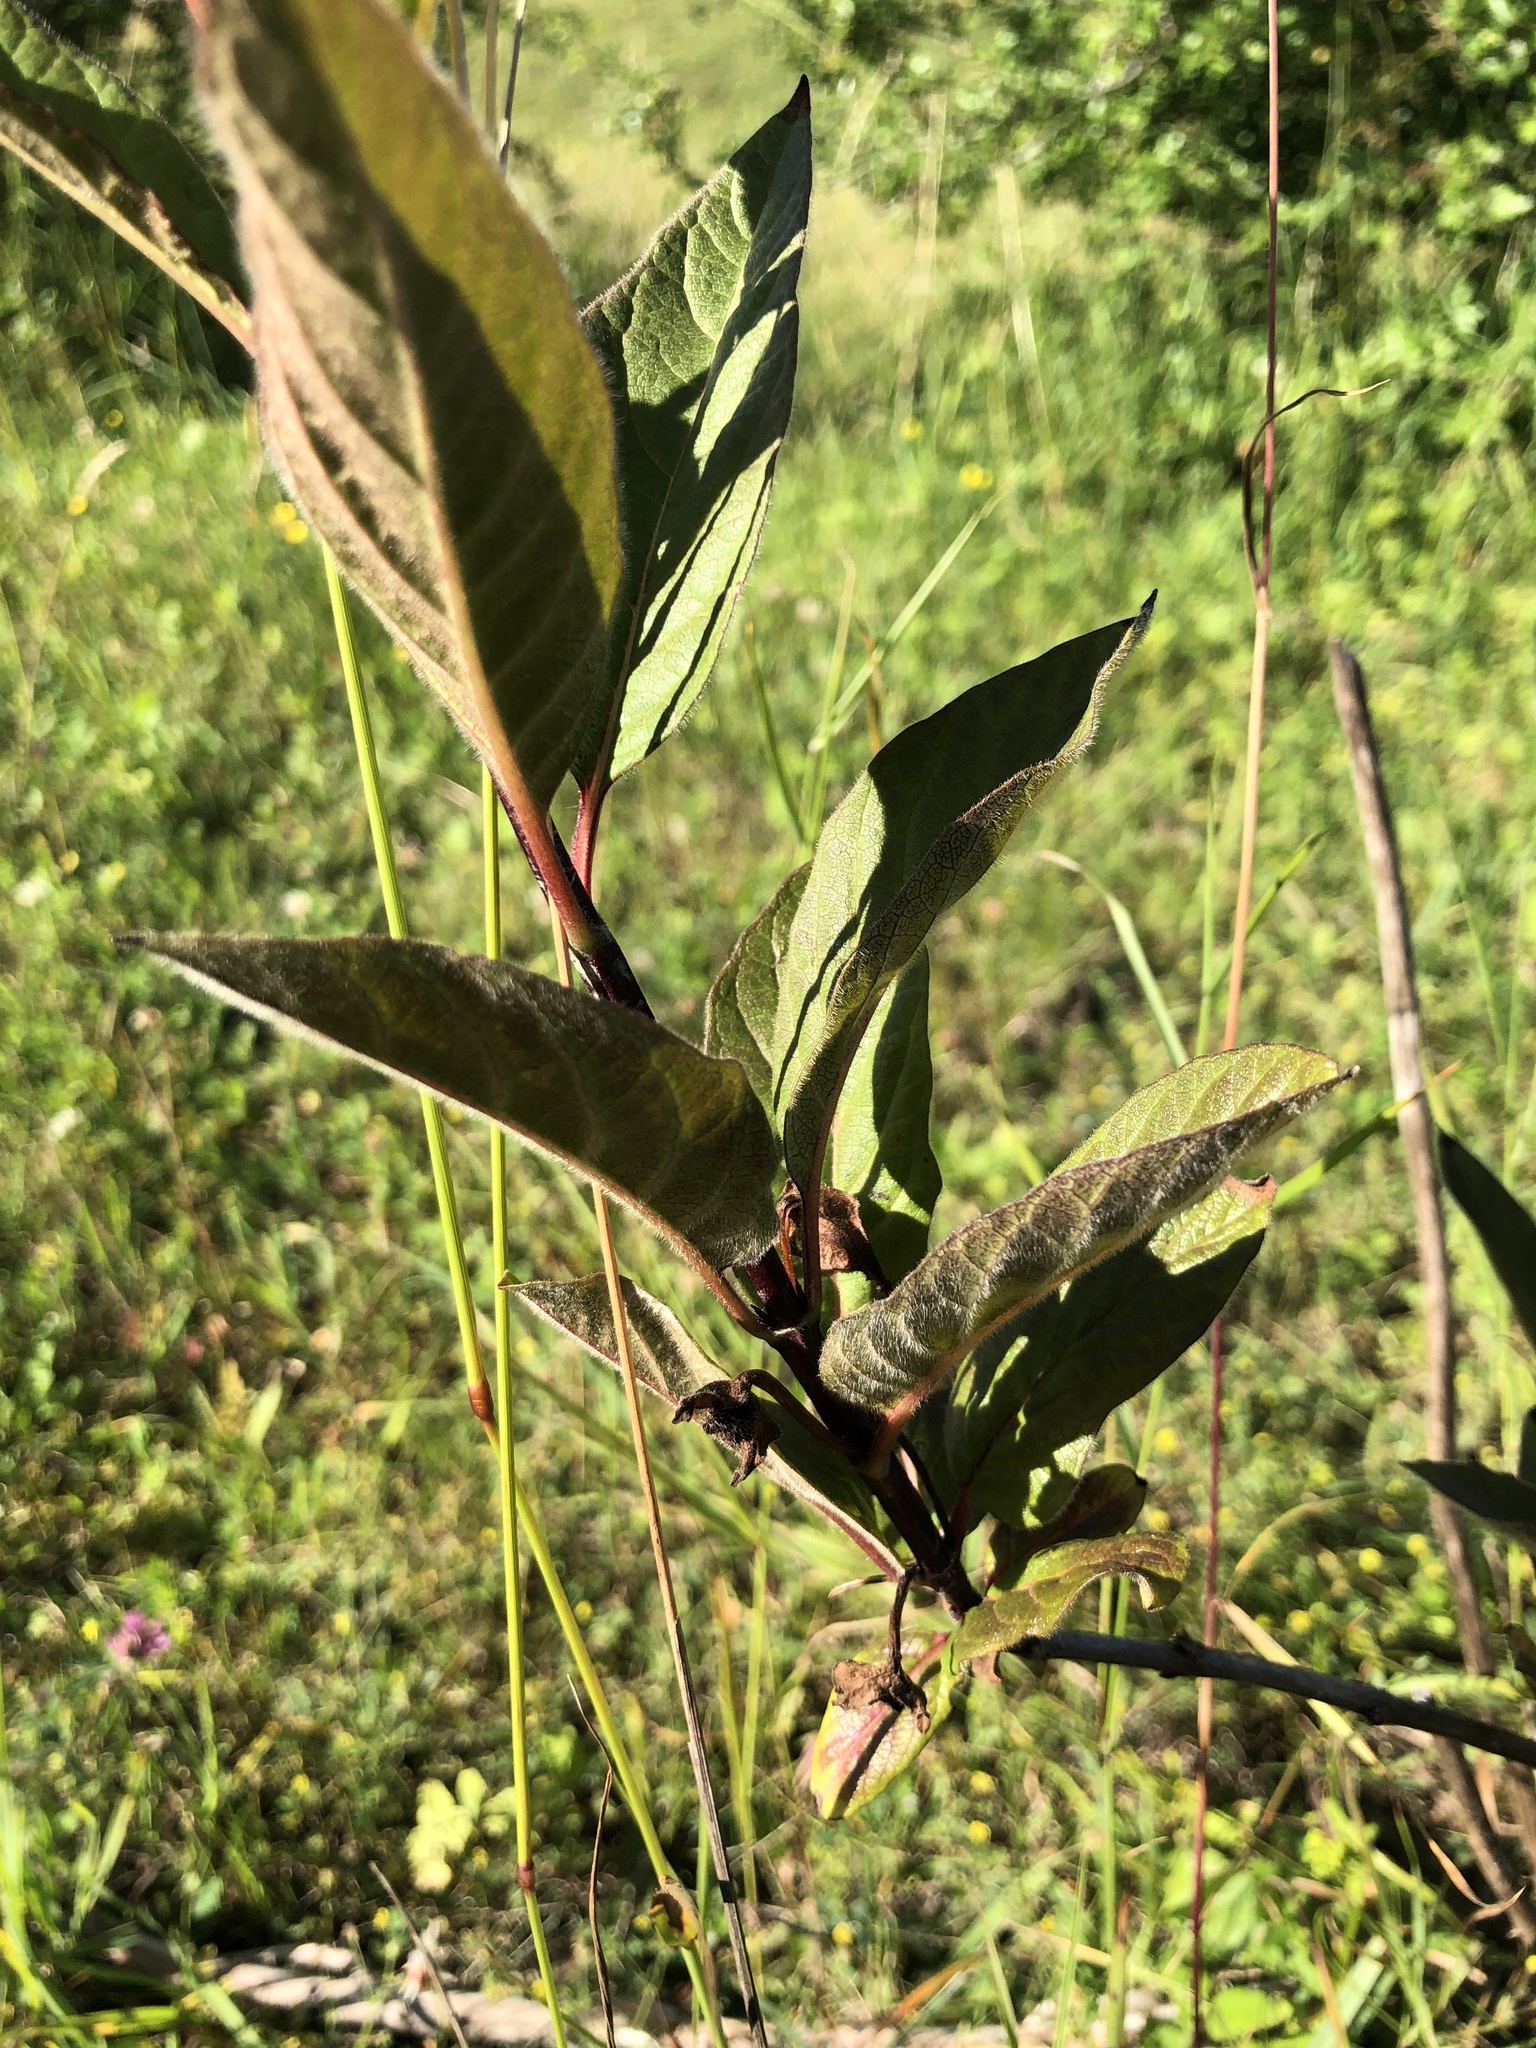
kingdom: Plantae
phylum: Tracheophyta
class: Magnoliopsida
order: Dipsacales
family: Caprifoliaceae
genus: Lonicera
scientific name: Lonicera involucrata
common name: Californian honeysuckle
